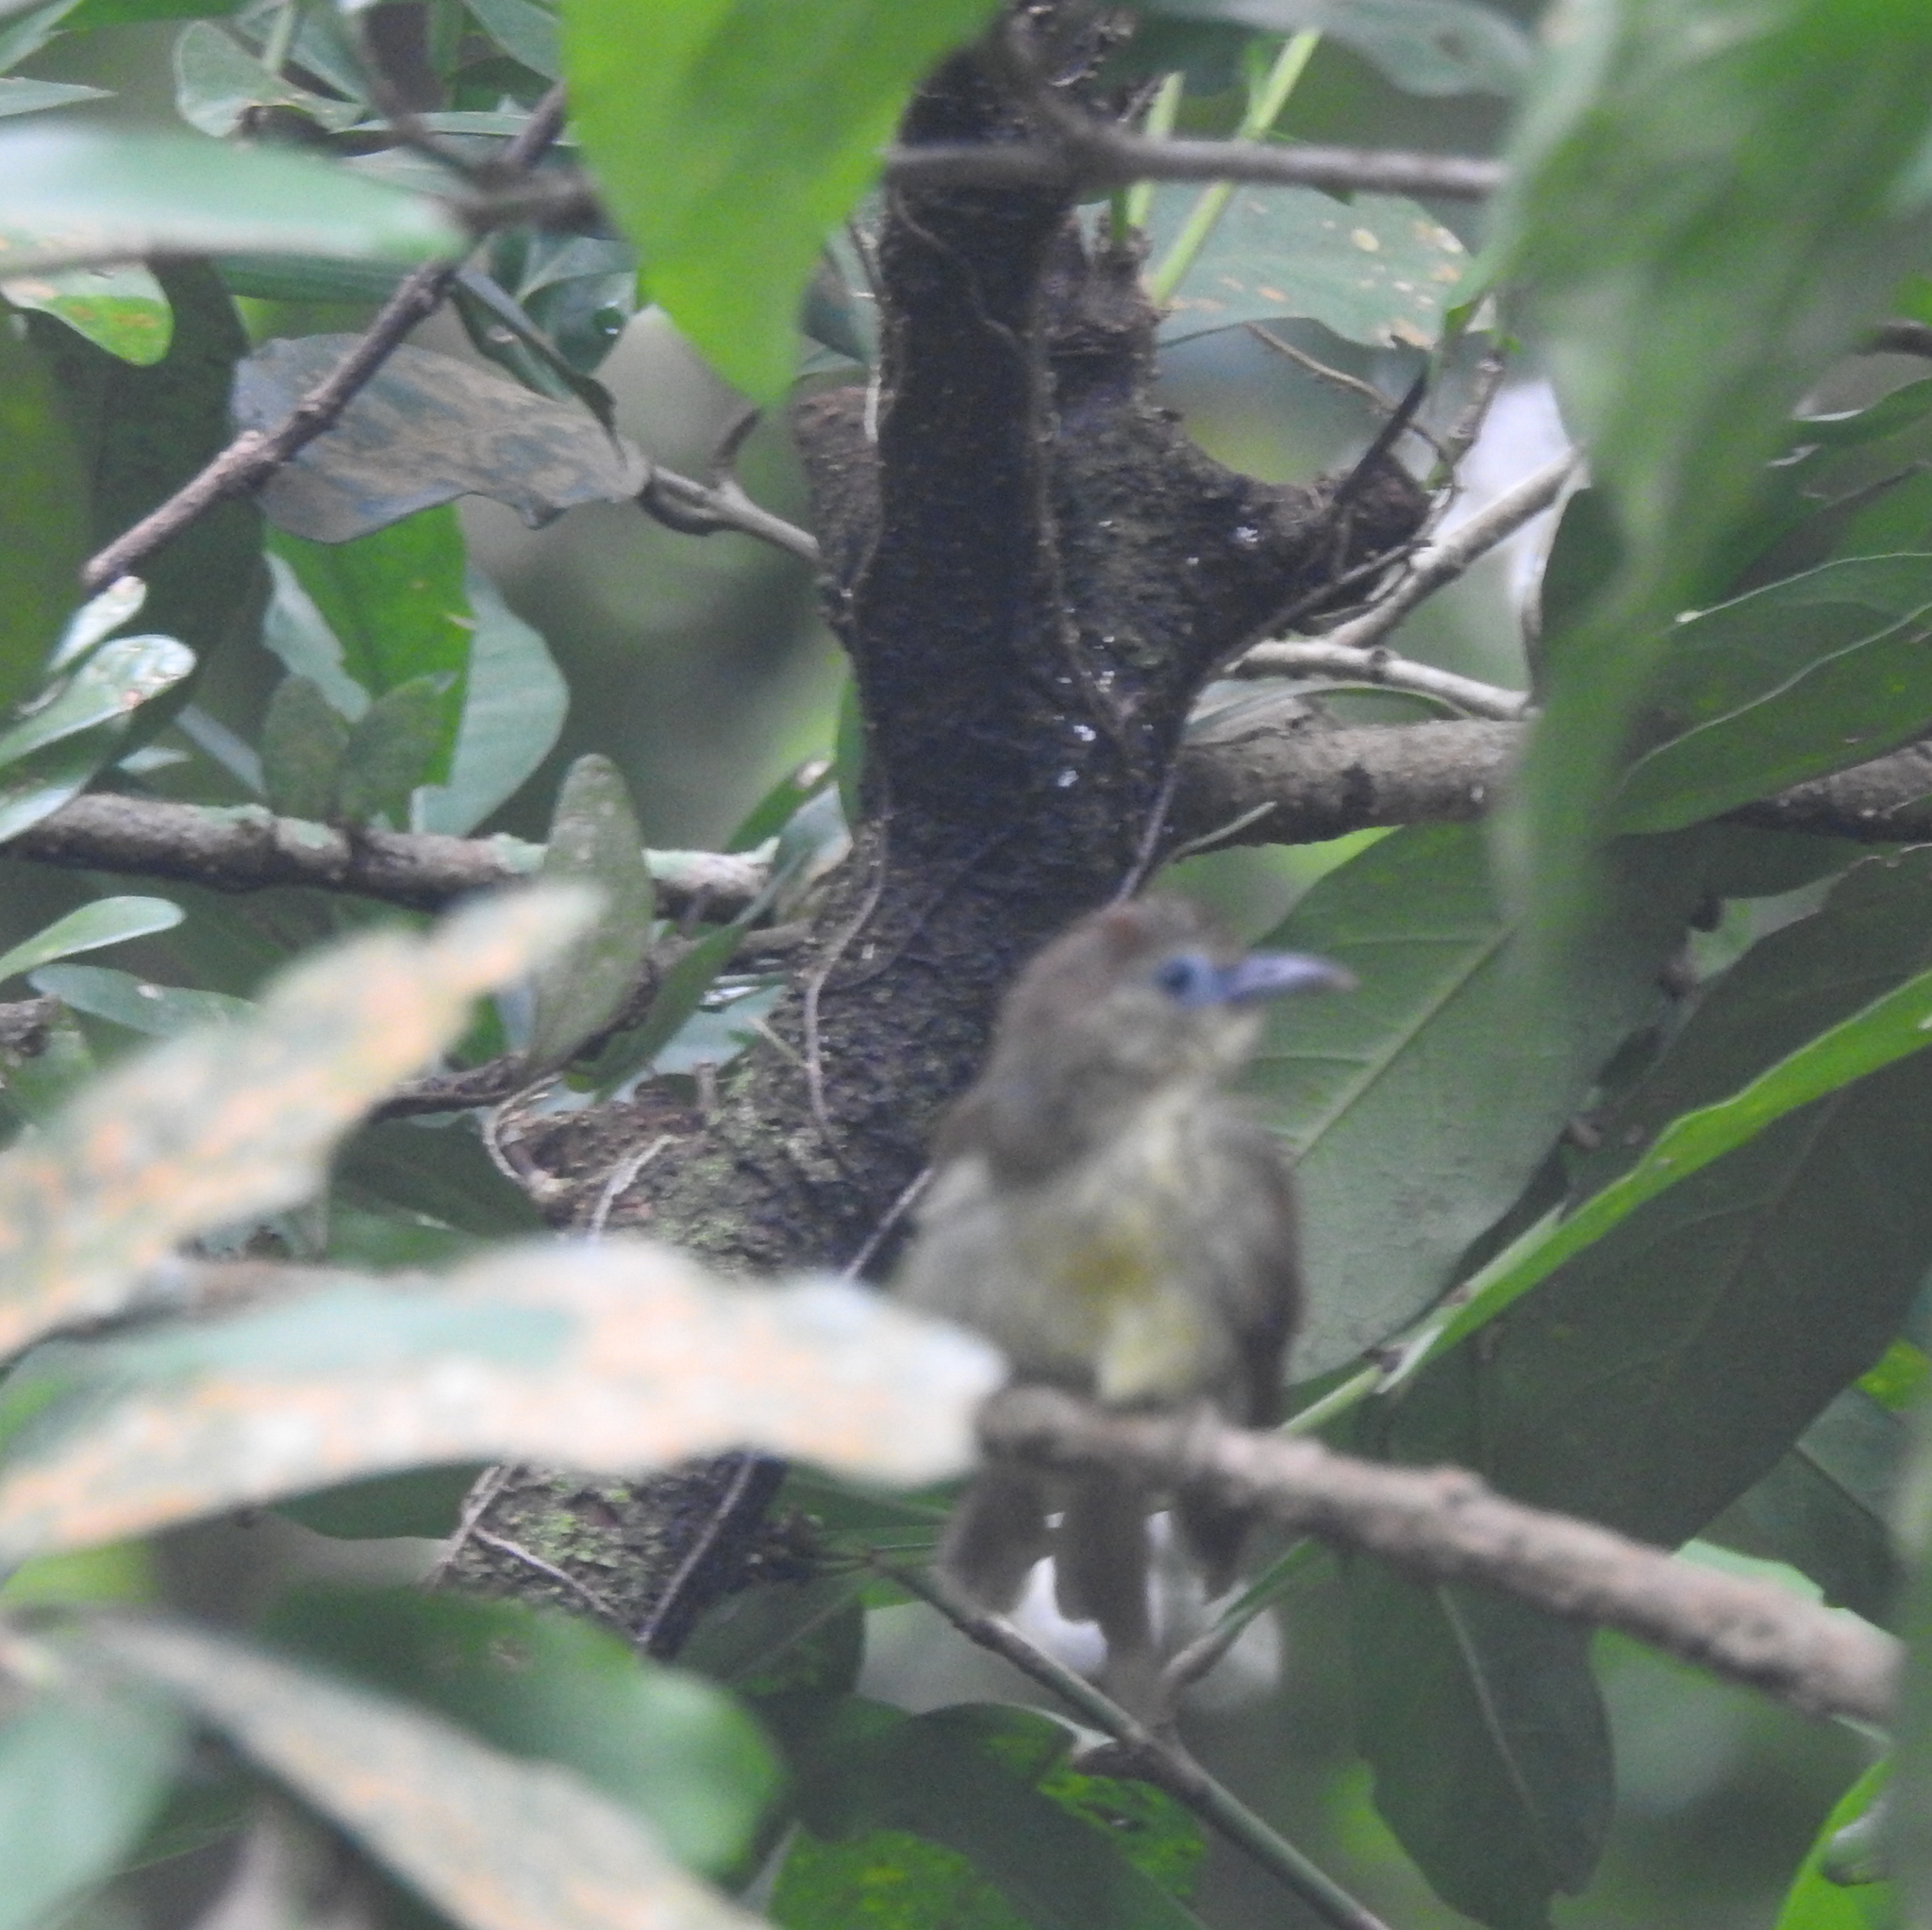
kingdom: Animalia
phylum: Chordata
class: Aves
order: Passeriformes
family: Timaliidae
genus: Macronus
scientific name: Macronus gularis
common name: Striped tit-babbler
